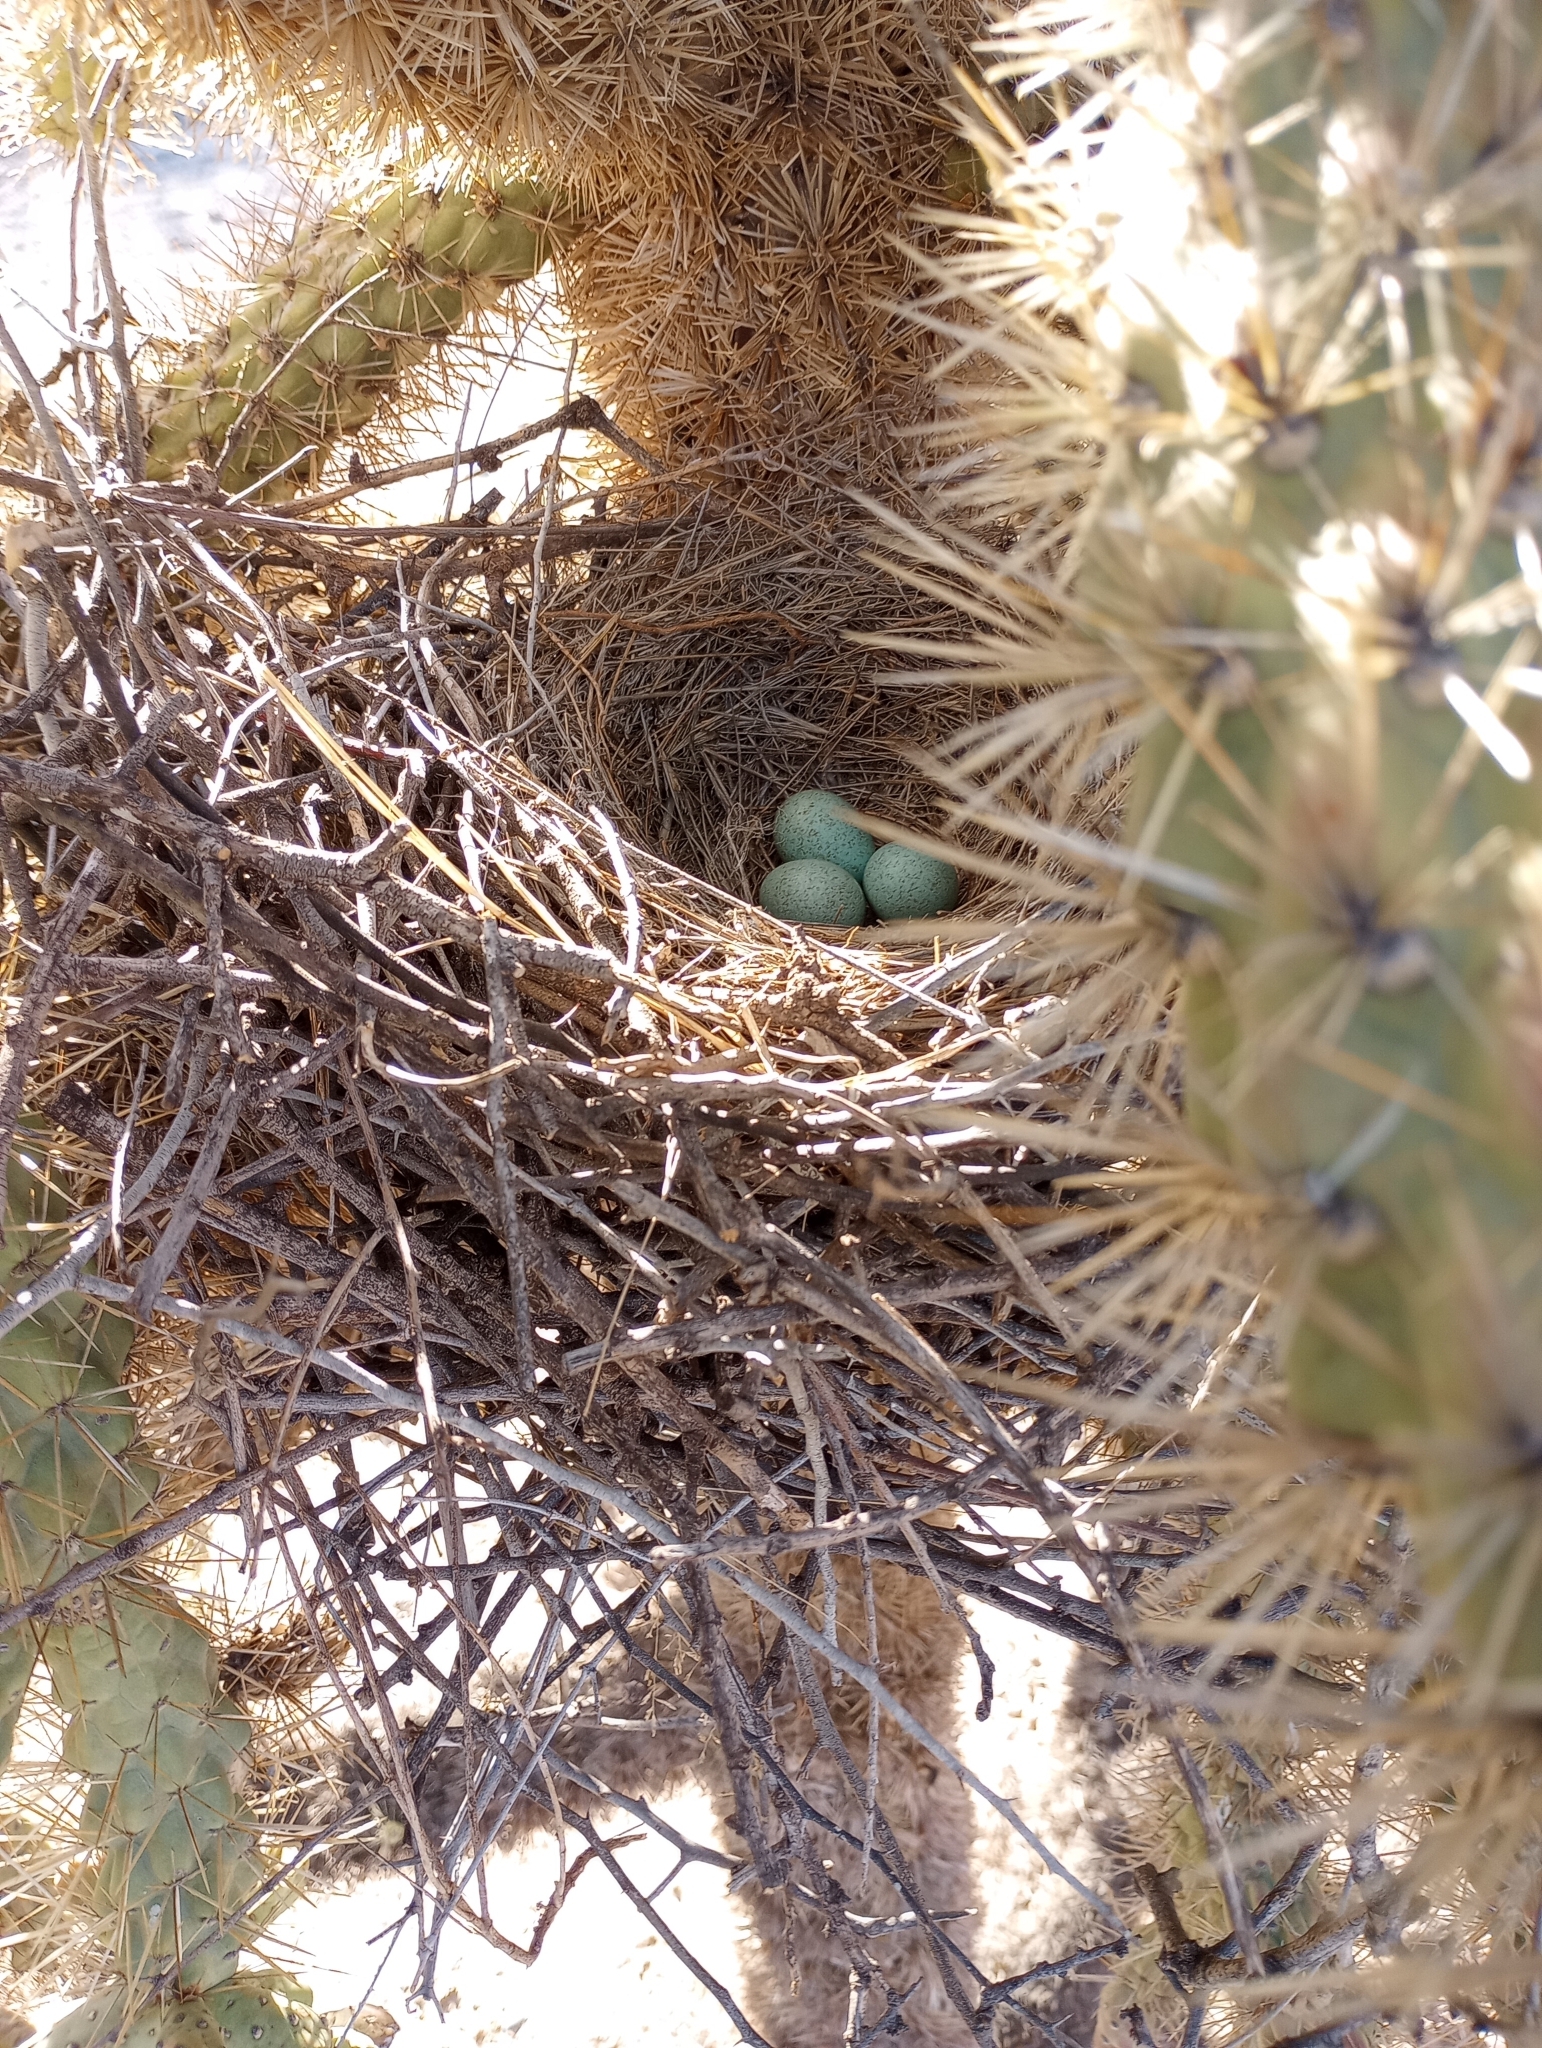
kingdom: Animalia
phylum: Chordata
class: Aves
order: Passeriformes
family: Mimidae
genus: Toxostoma
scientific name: Toxostoma curvirostre
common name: Curve-billed thrasher
